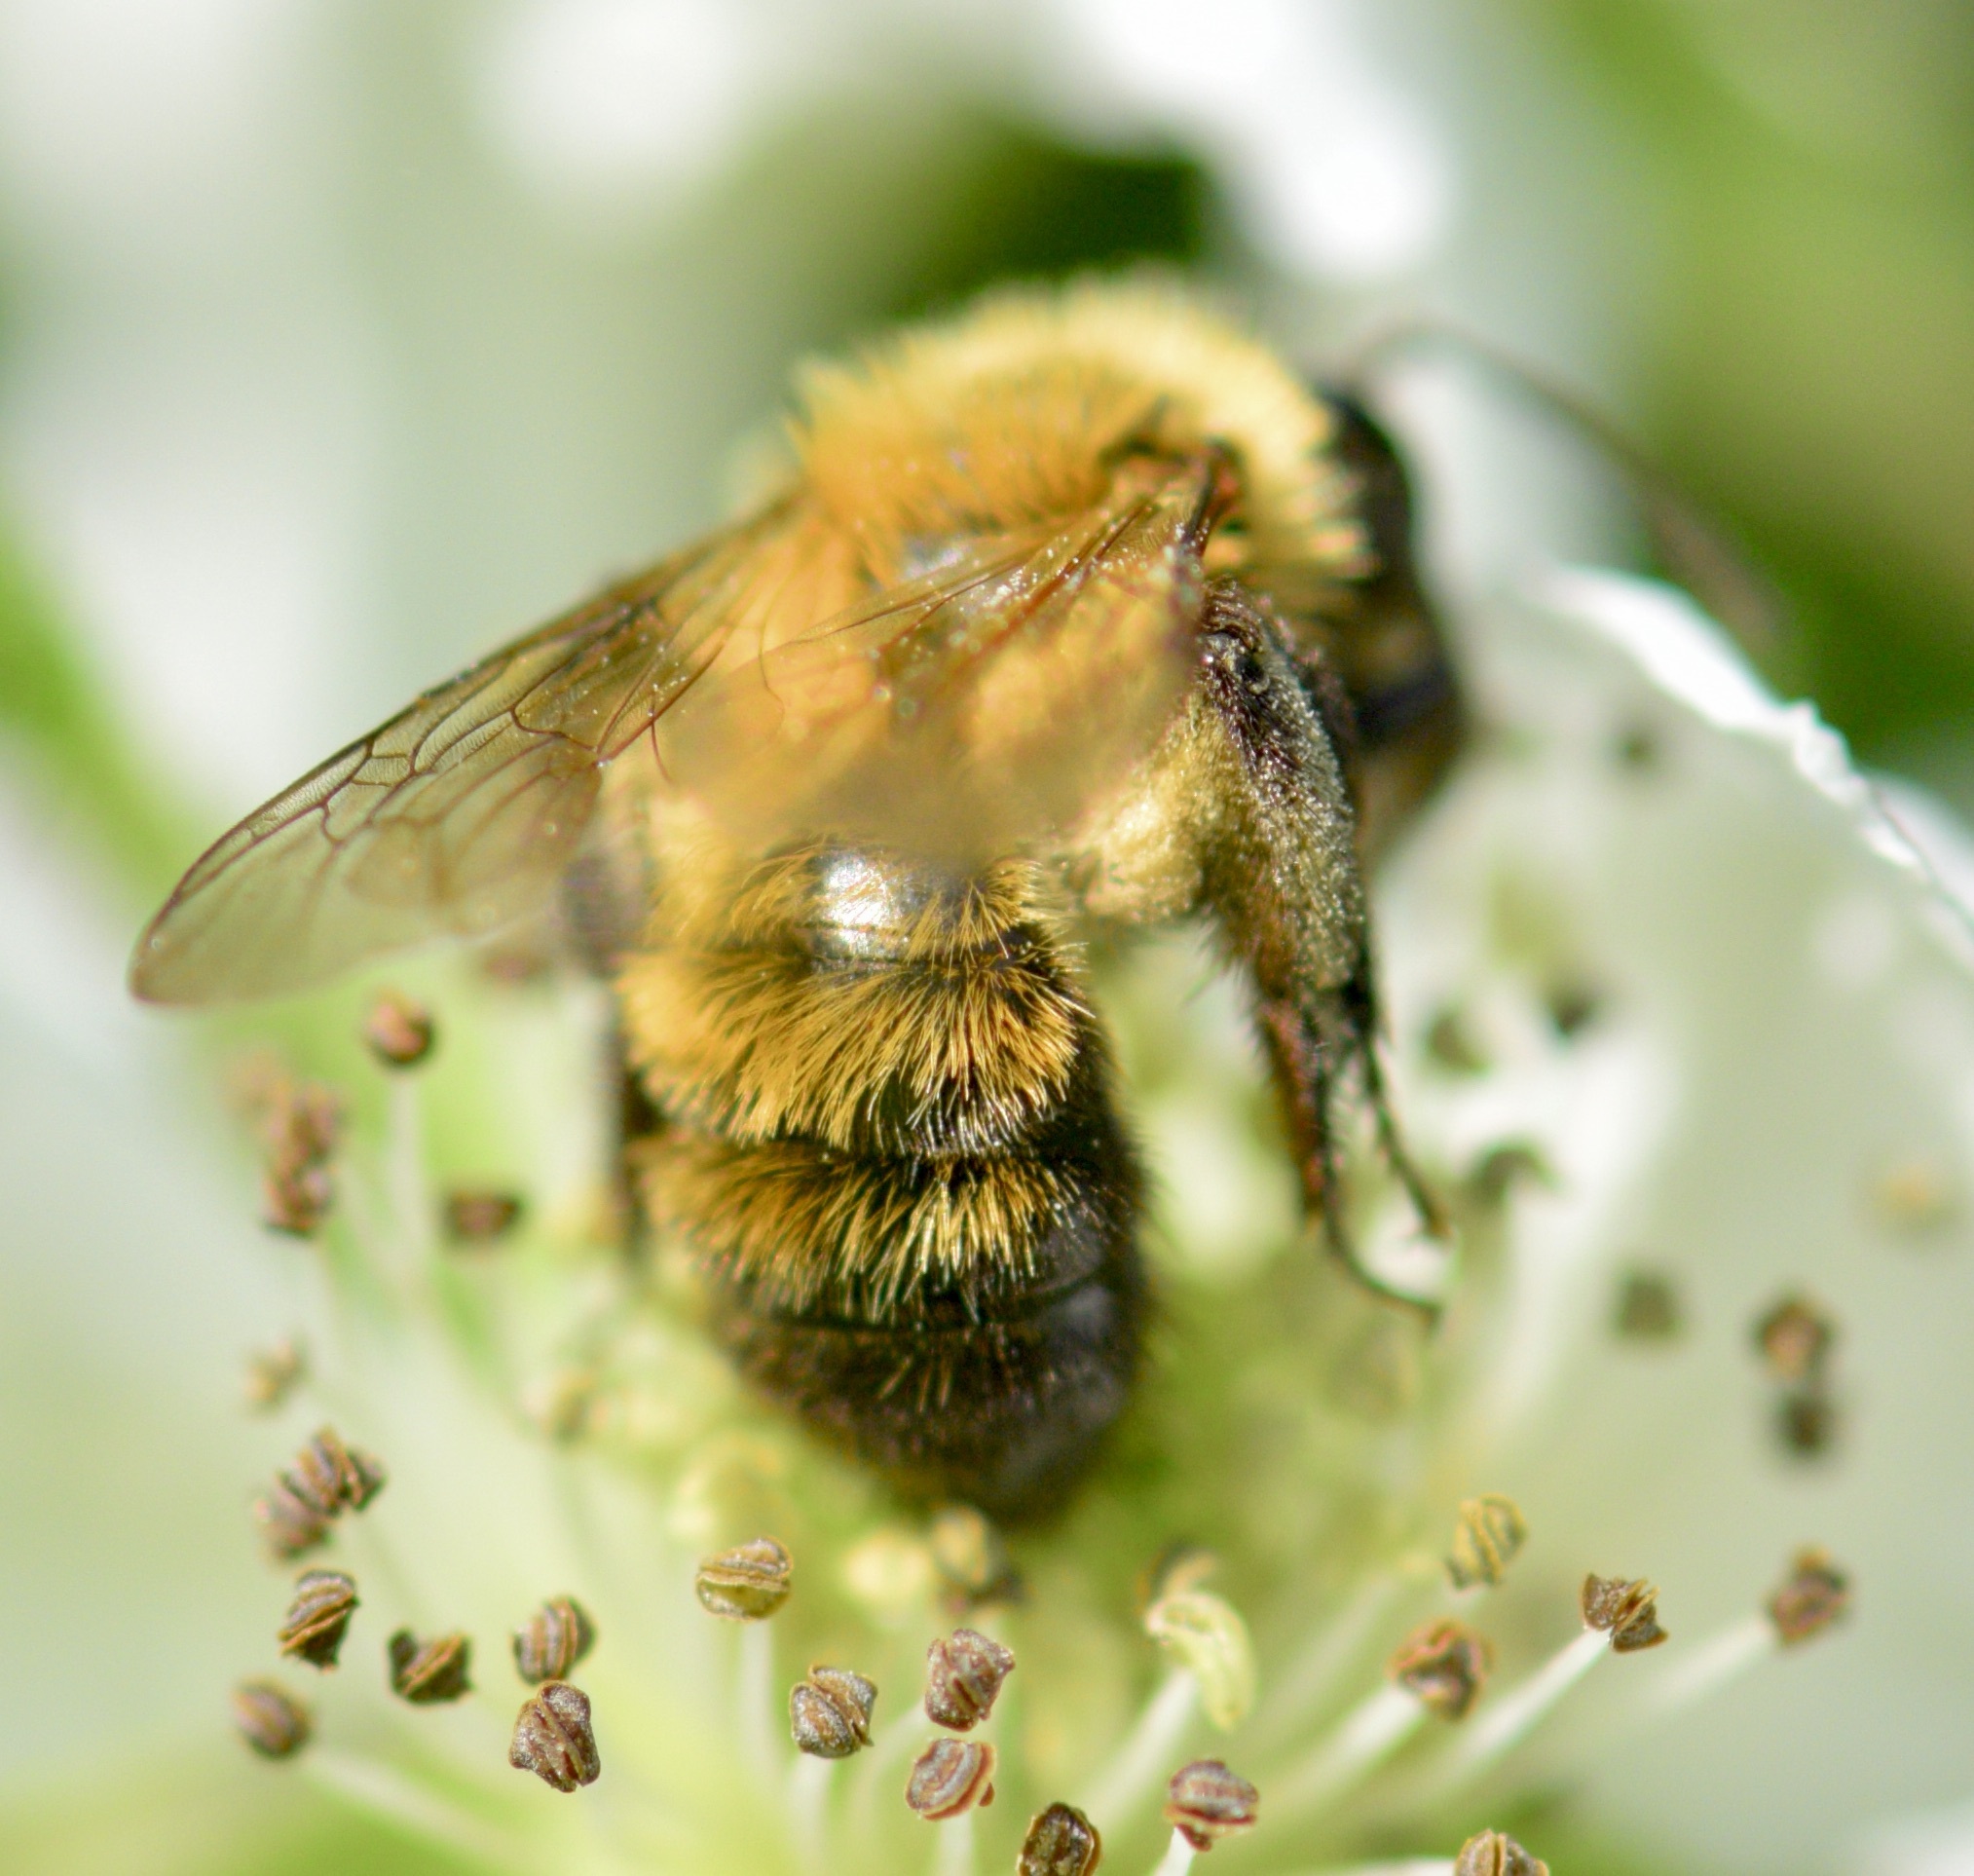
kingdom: Animalia
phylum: Arthropoda
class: Insecta
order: Hymenoptera
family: Andrenidae
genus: Andrena
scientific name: Andrena milwaukeensis
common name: Milwaukee mining bee
